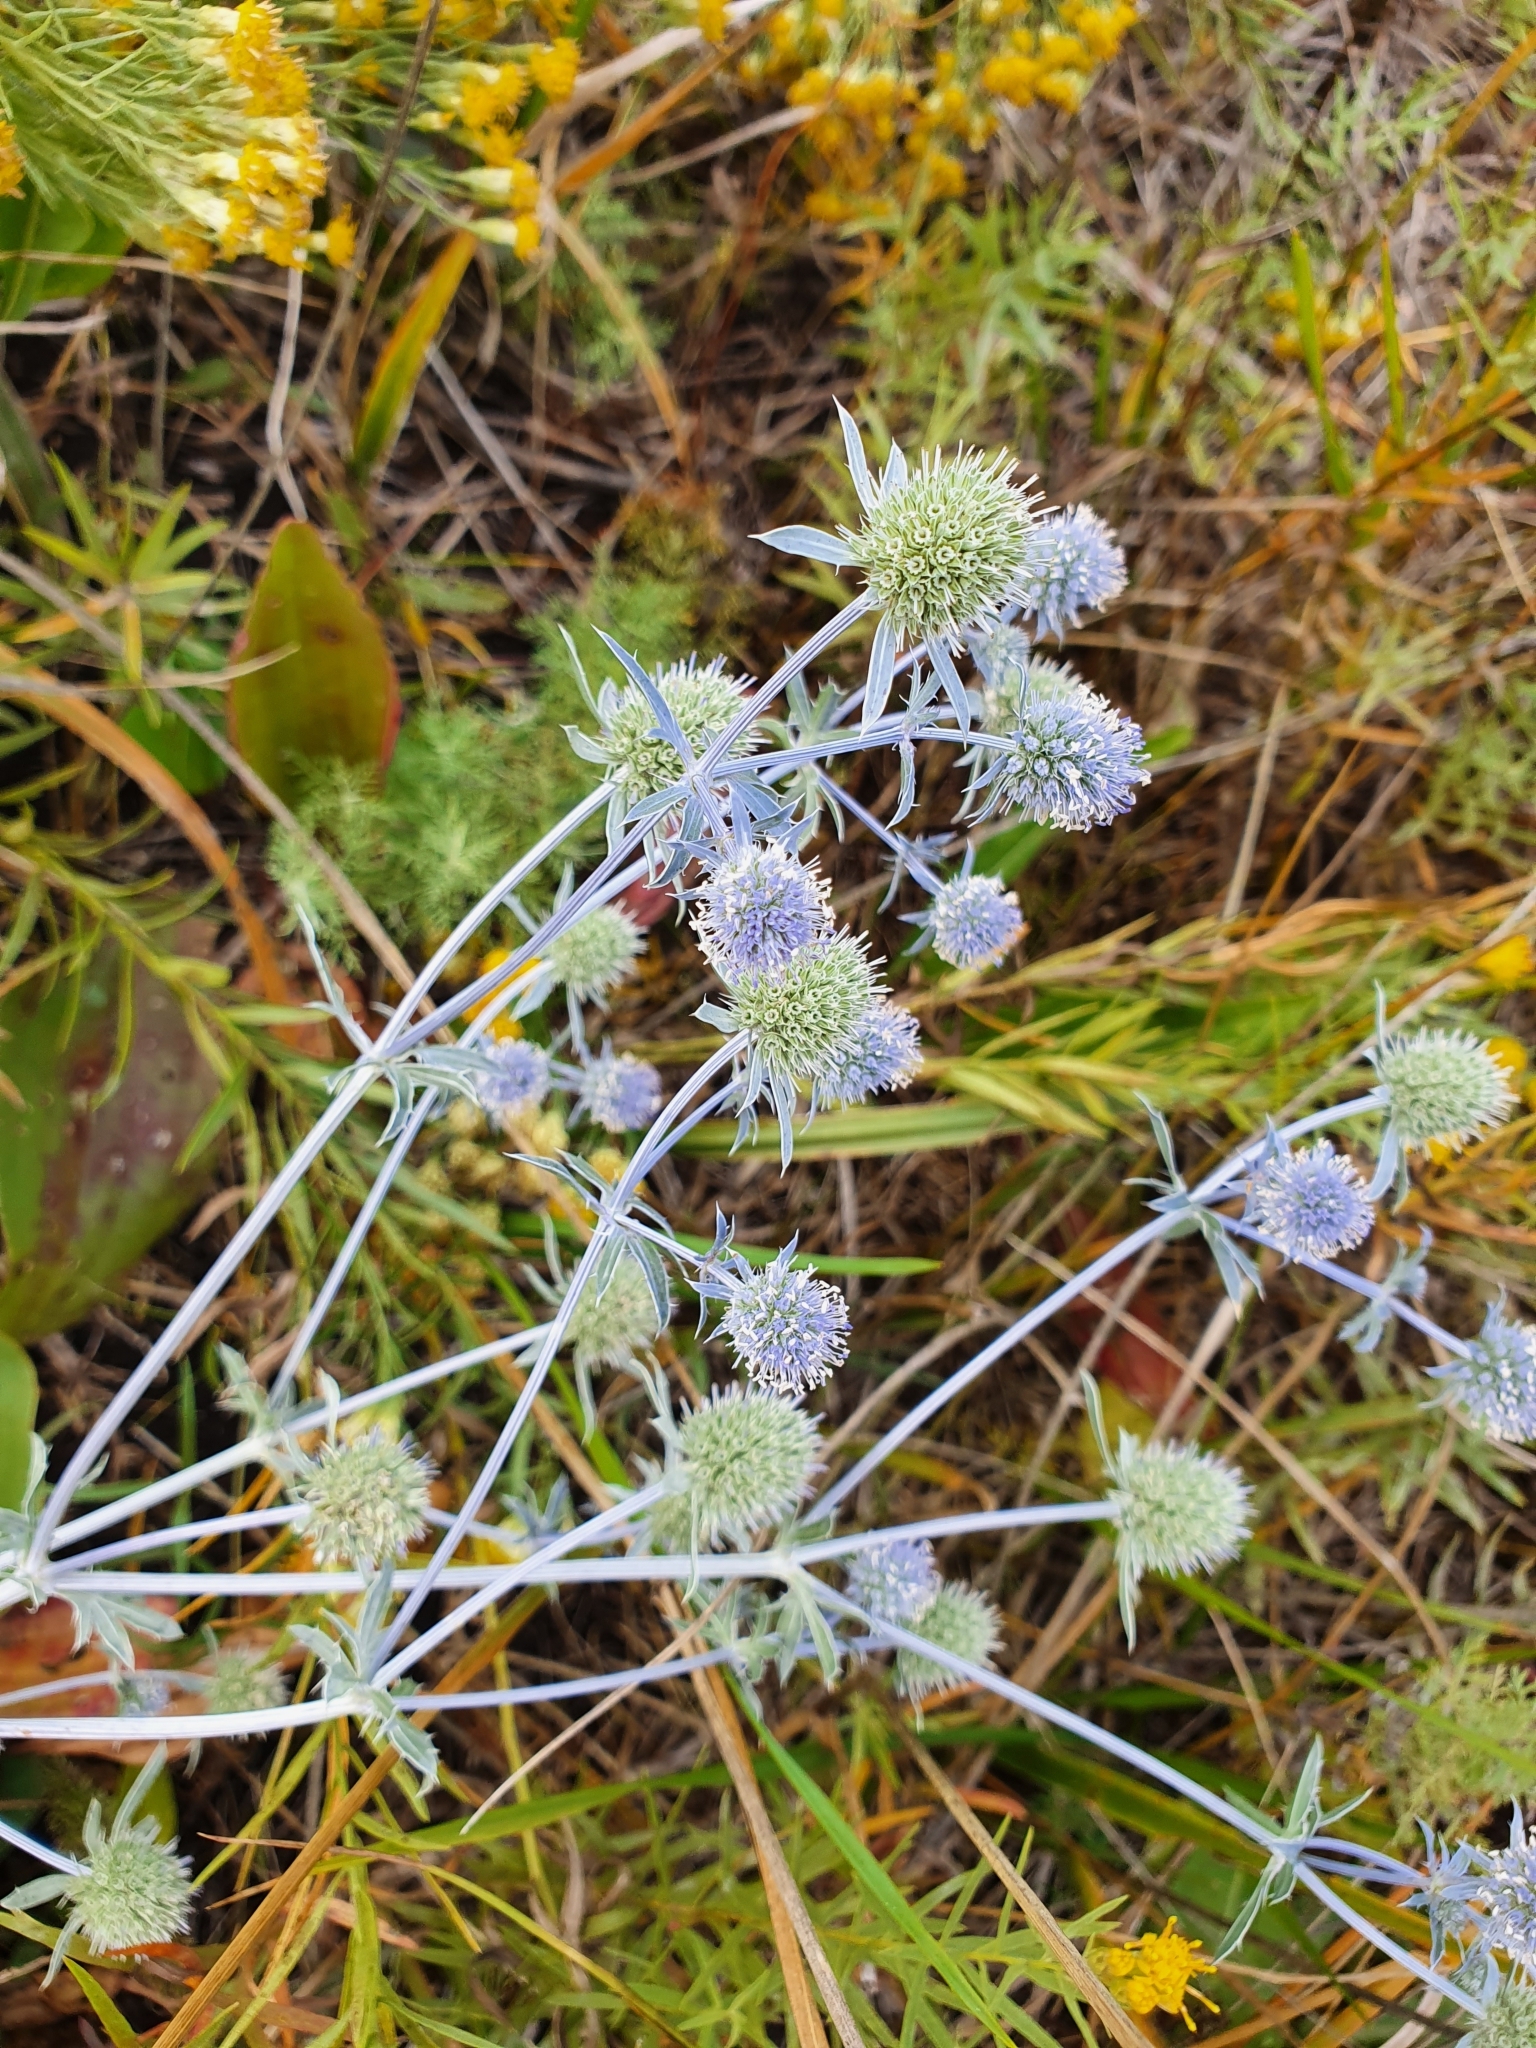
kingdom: Plantae
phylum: Tracheophyta
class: Magnoliopsida
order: Apiales
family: Apiaceae
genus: Eryngium
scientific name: Eryngium planum
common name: Blue eryngo
